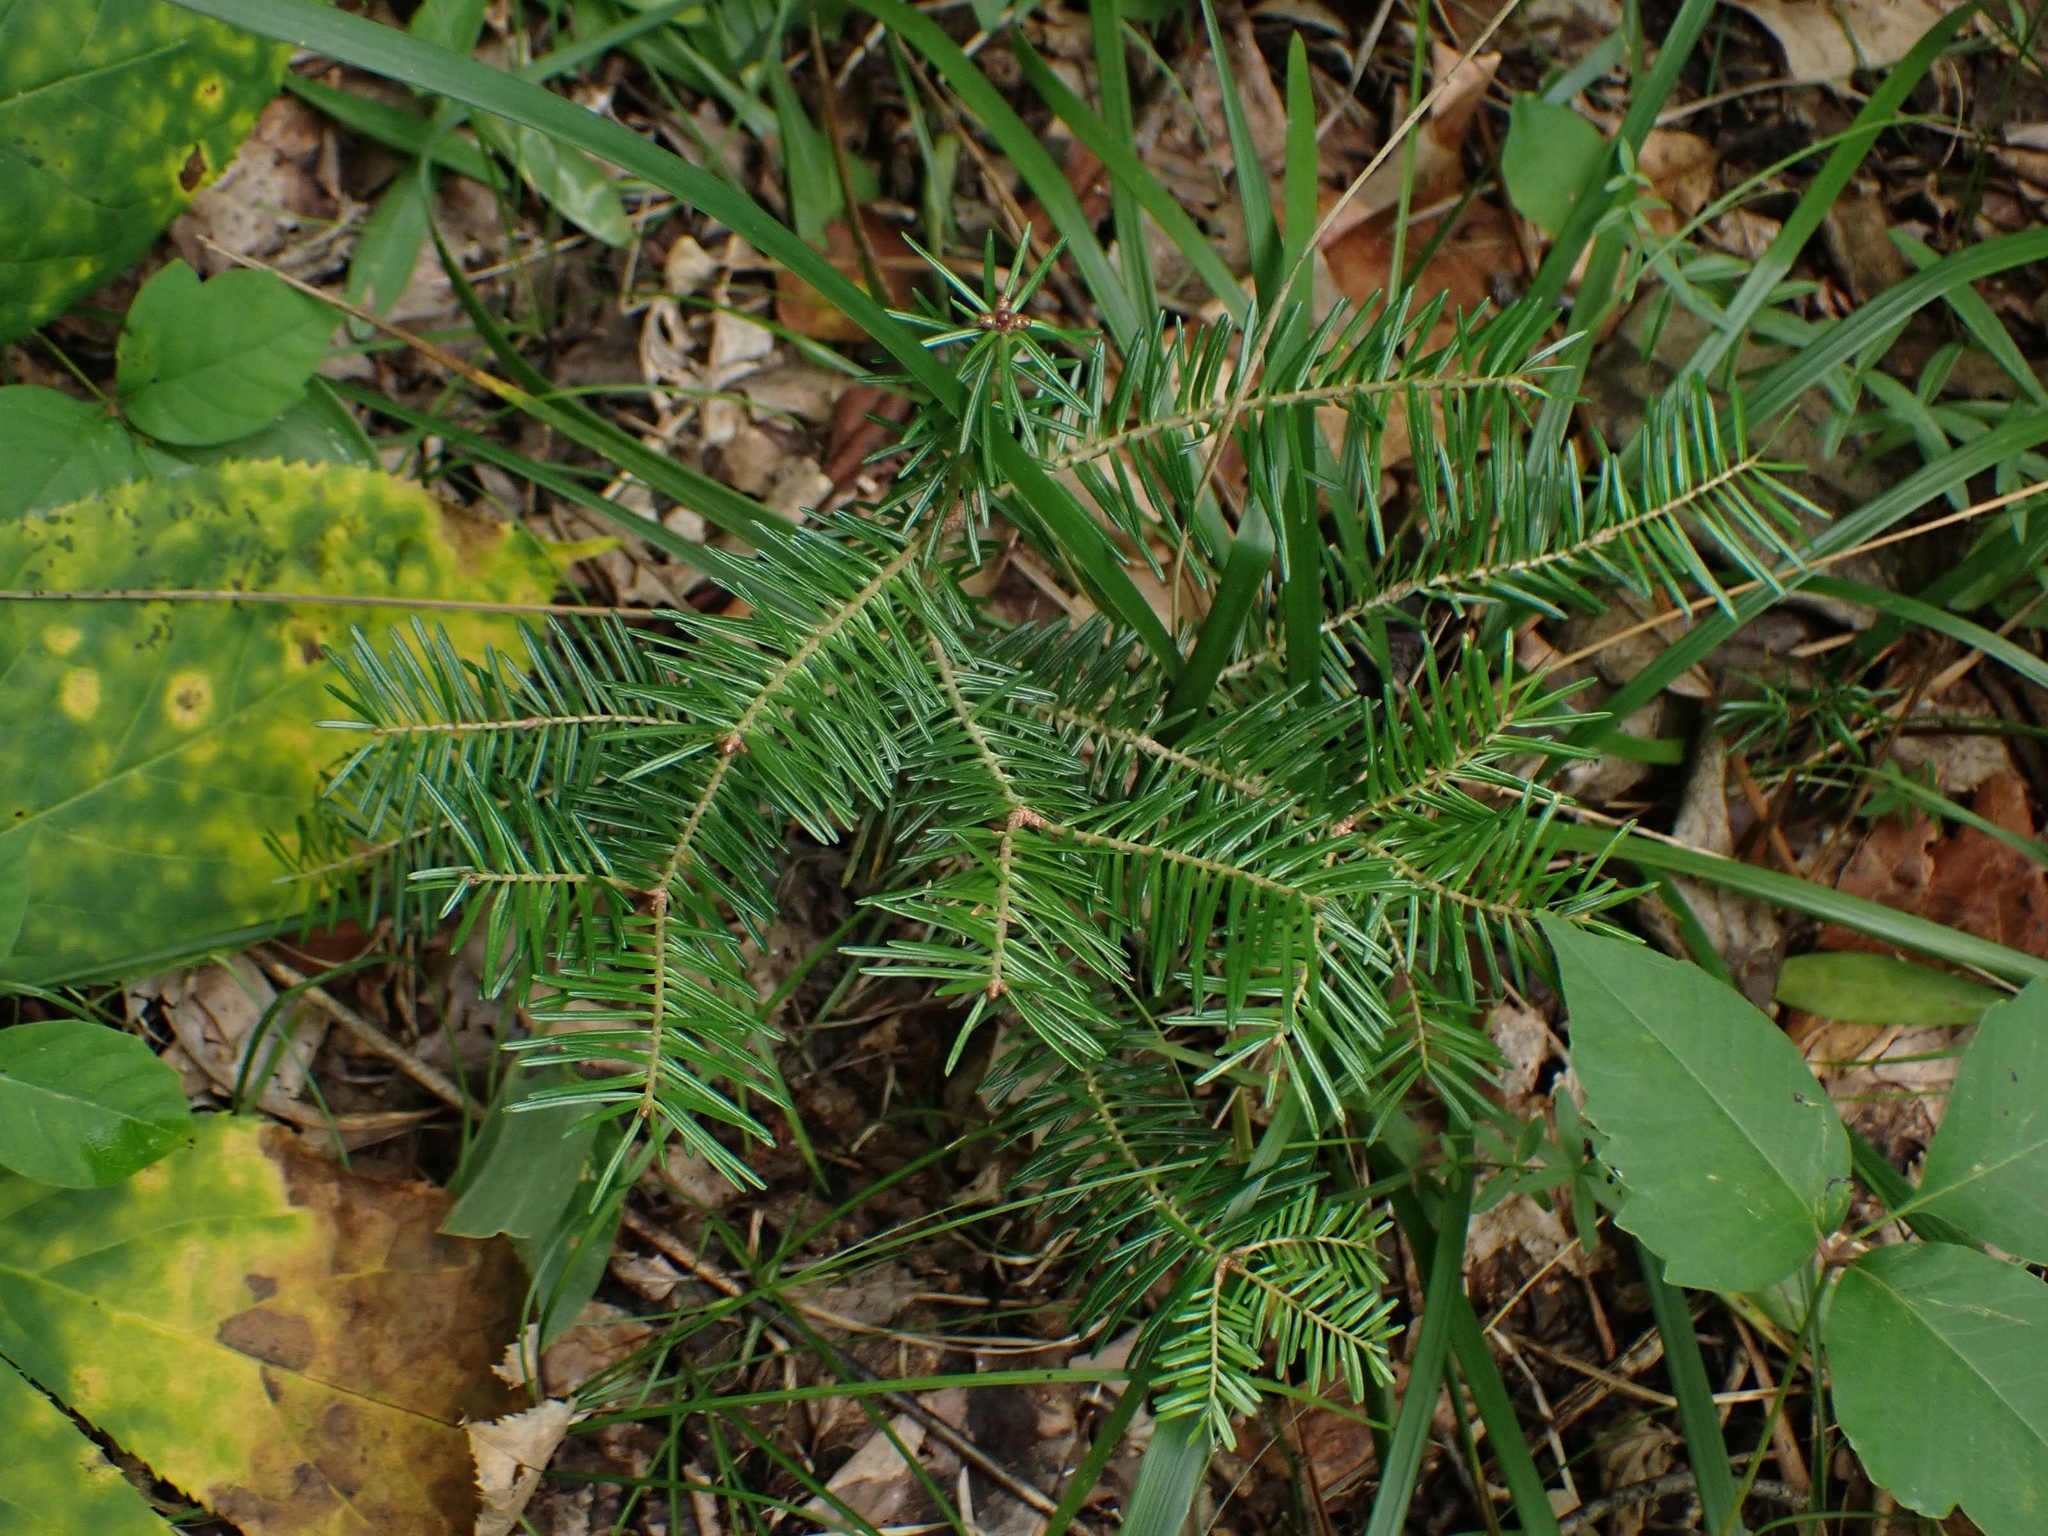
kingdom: Plantae
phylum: Tracheophyta
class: Pinopsida
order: Pinales
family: Pinaceae
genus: Abies
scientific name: Abies balsamea
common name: Balsam fir
